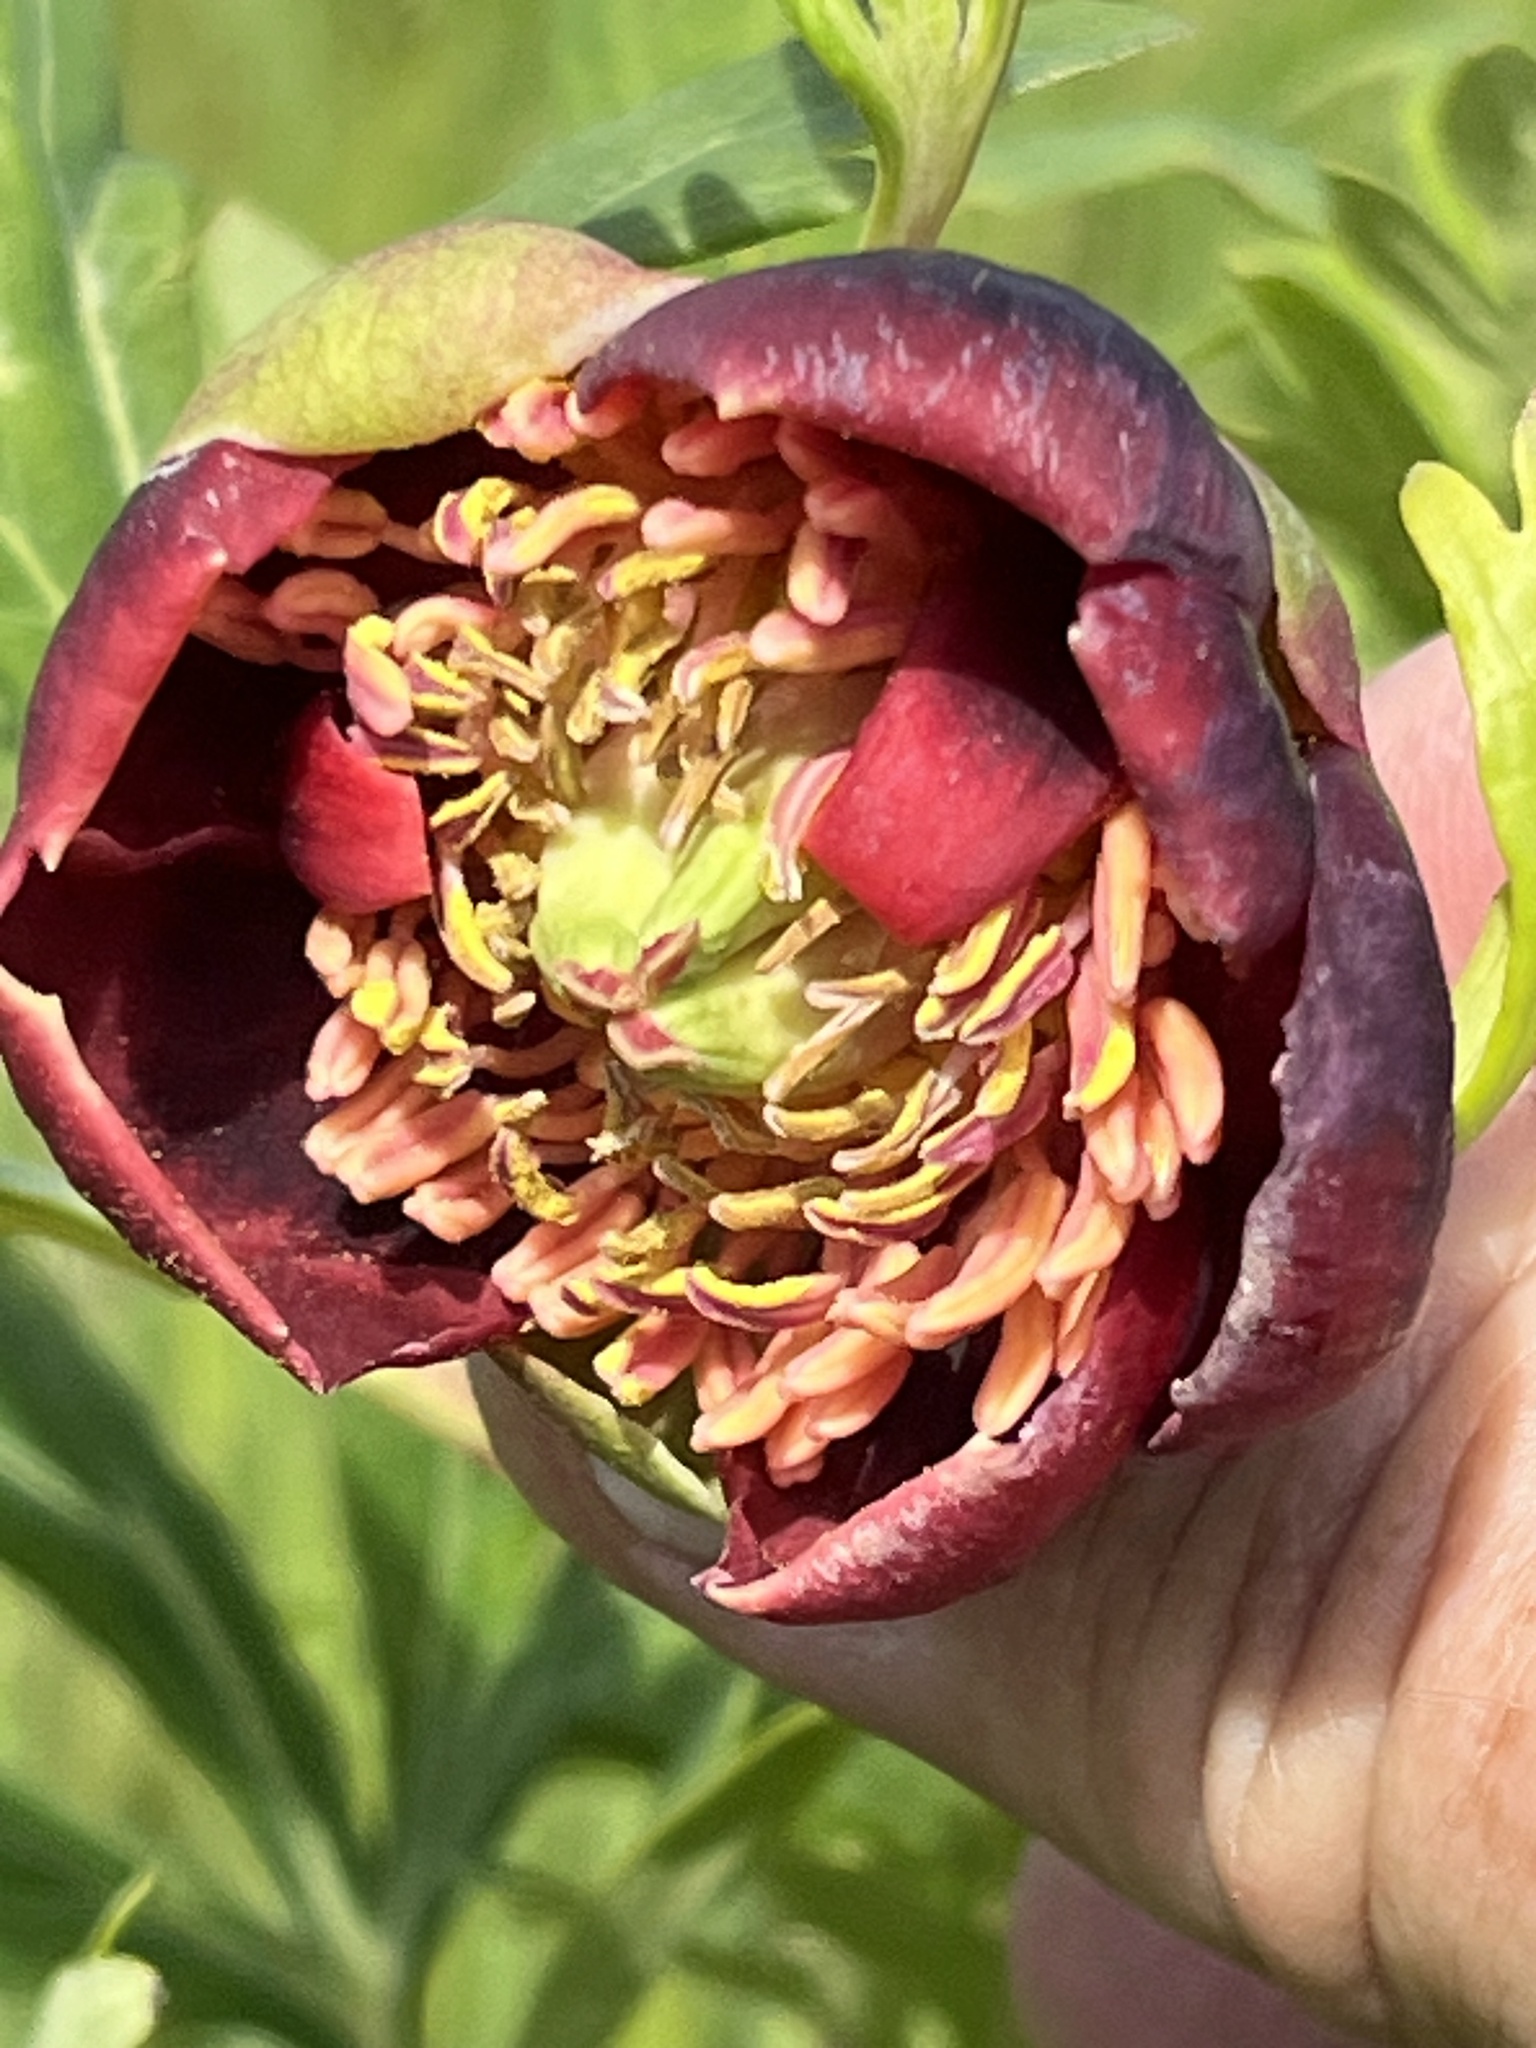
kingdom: Plantae
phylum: Tracheophyta
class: Magnoliopsida
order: Saxifragales
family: Paeoniaceae
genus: Paeonia
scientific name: Paeonia californica
